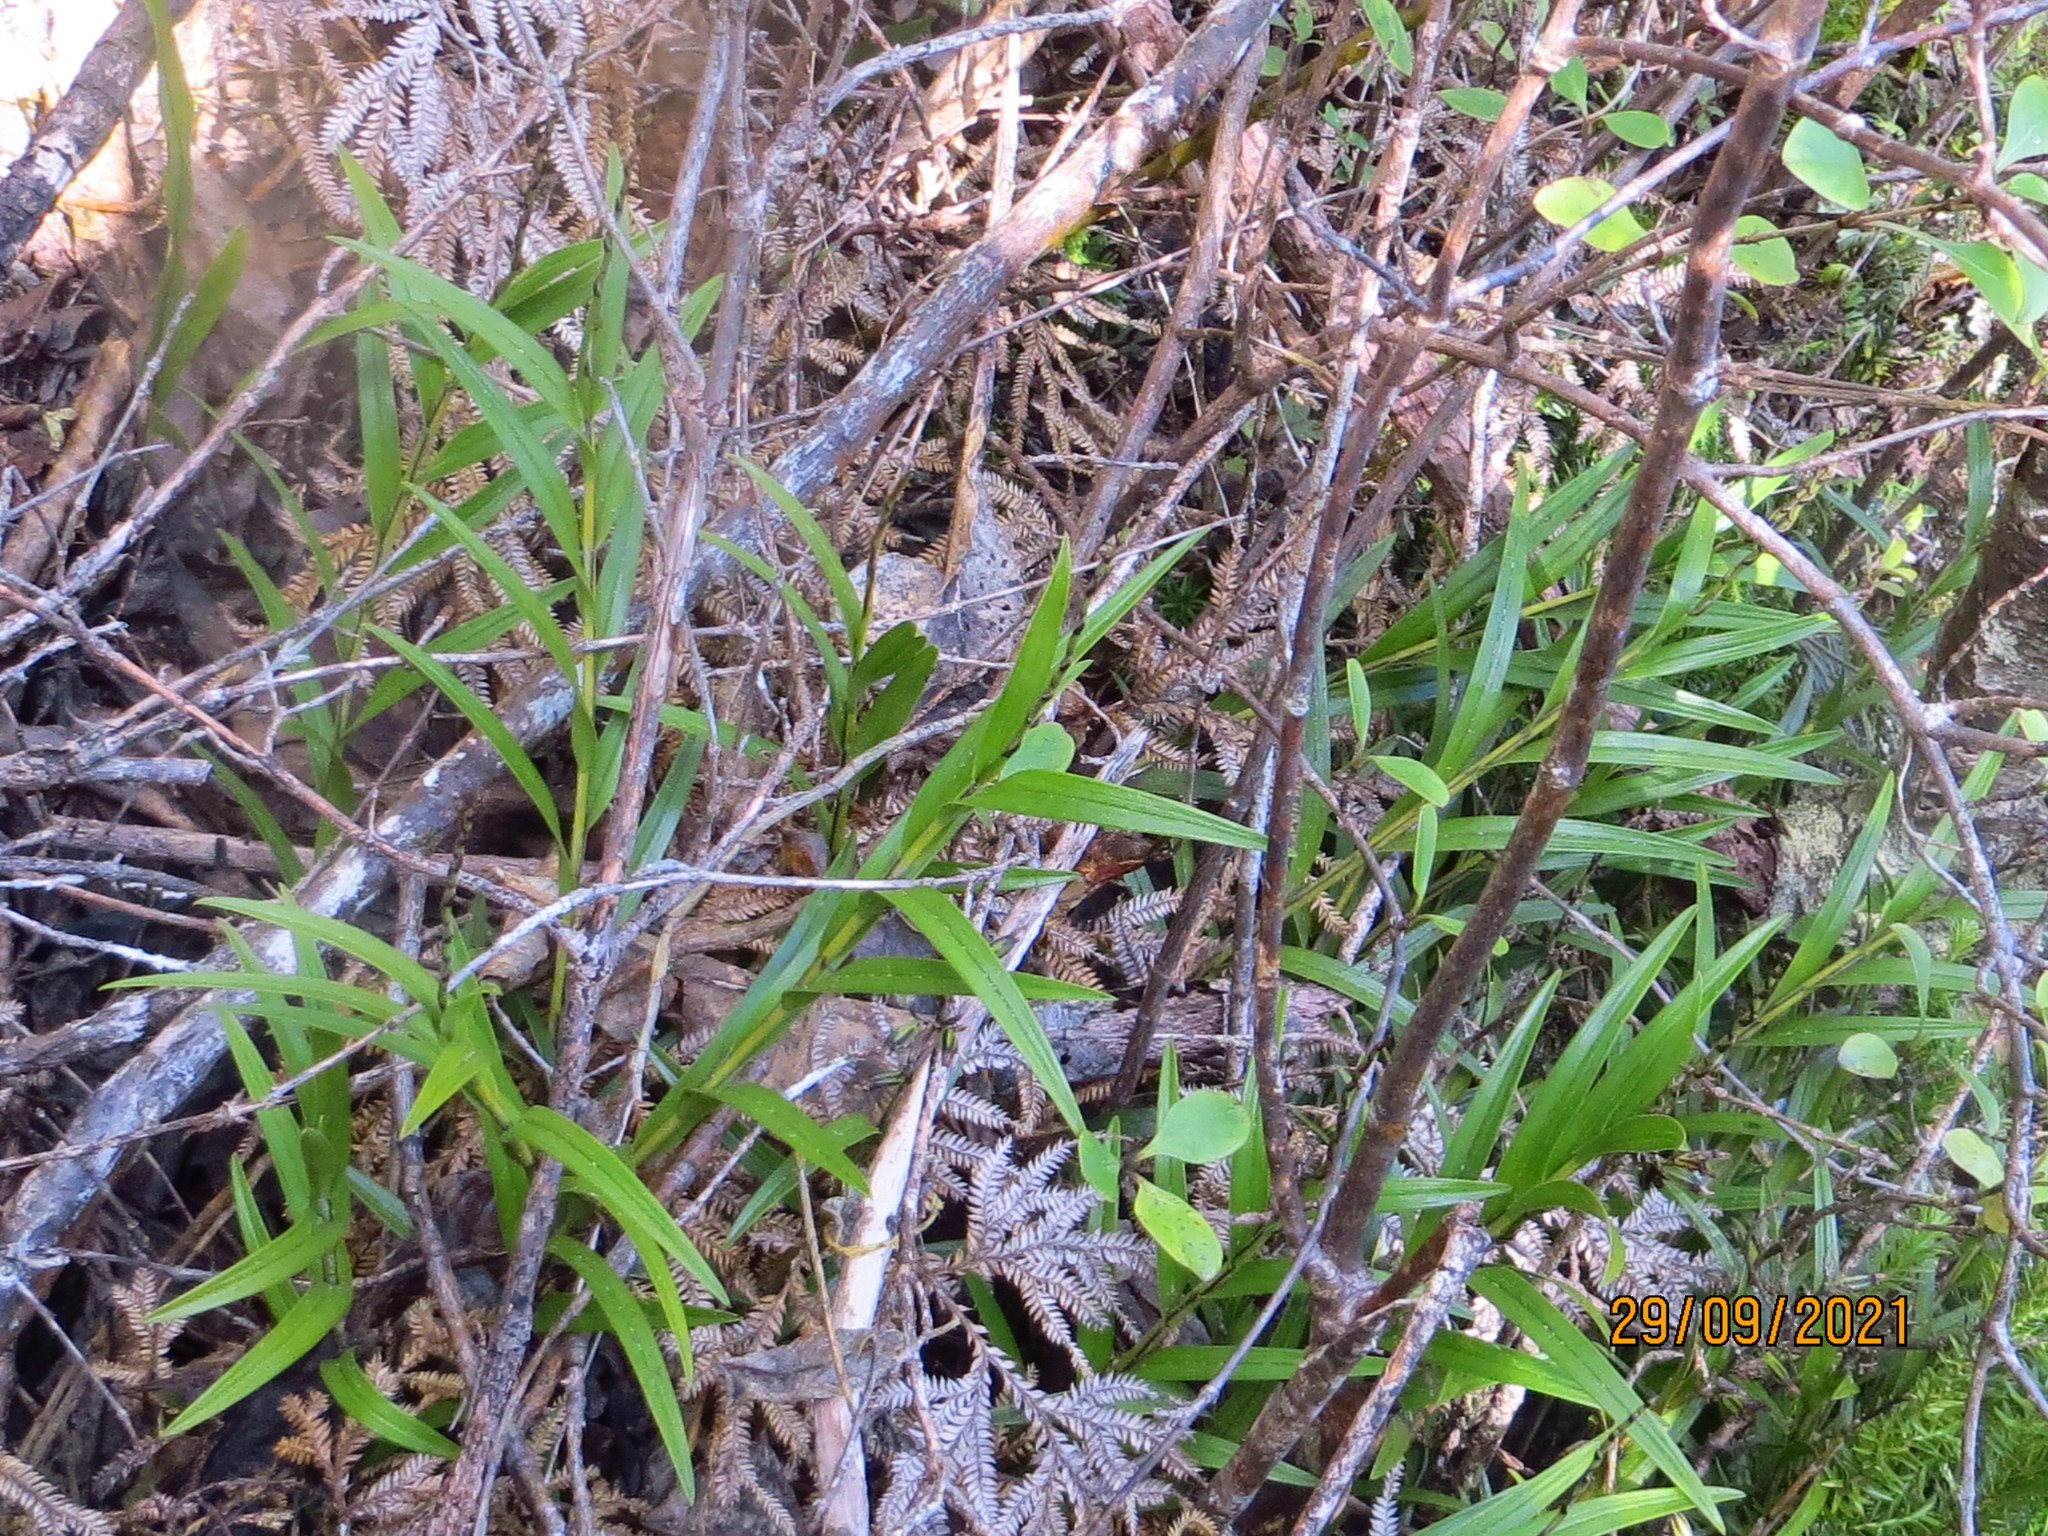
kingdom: Plantae
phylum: Tracheophyta
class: Liliopsida
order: Asparagales
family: Orchidaceae
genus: Earina
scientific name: Earina autumnalis
